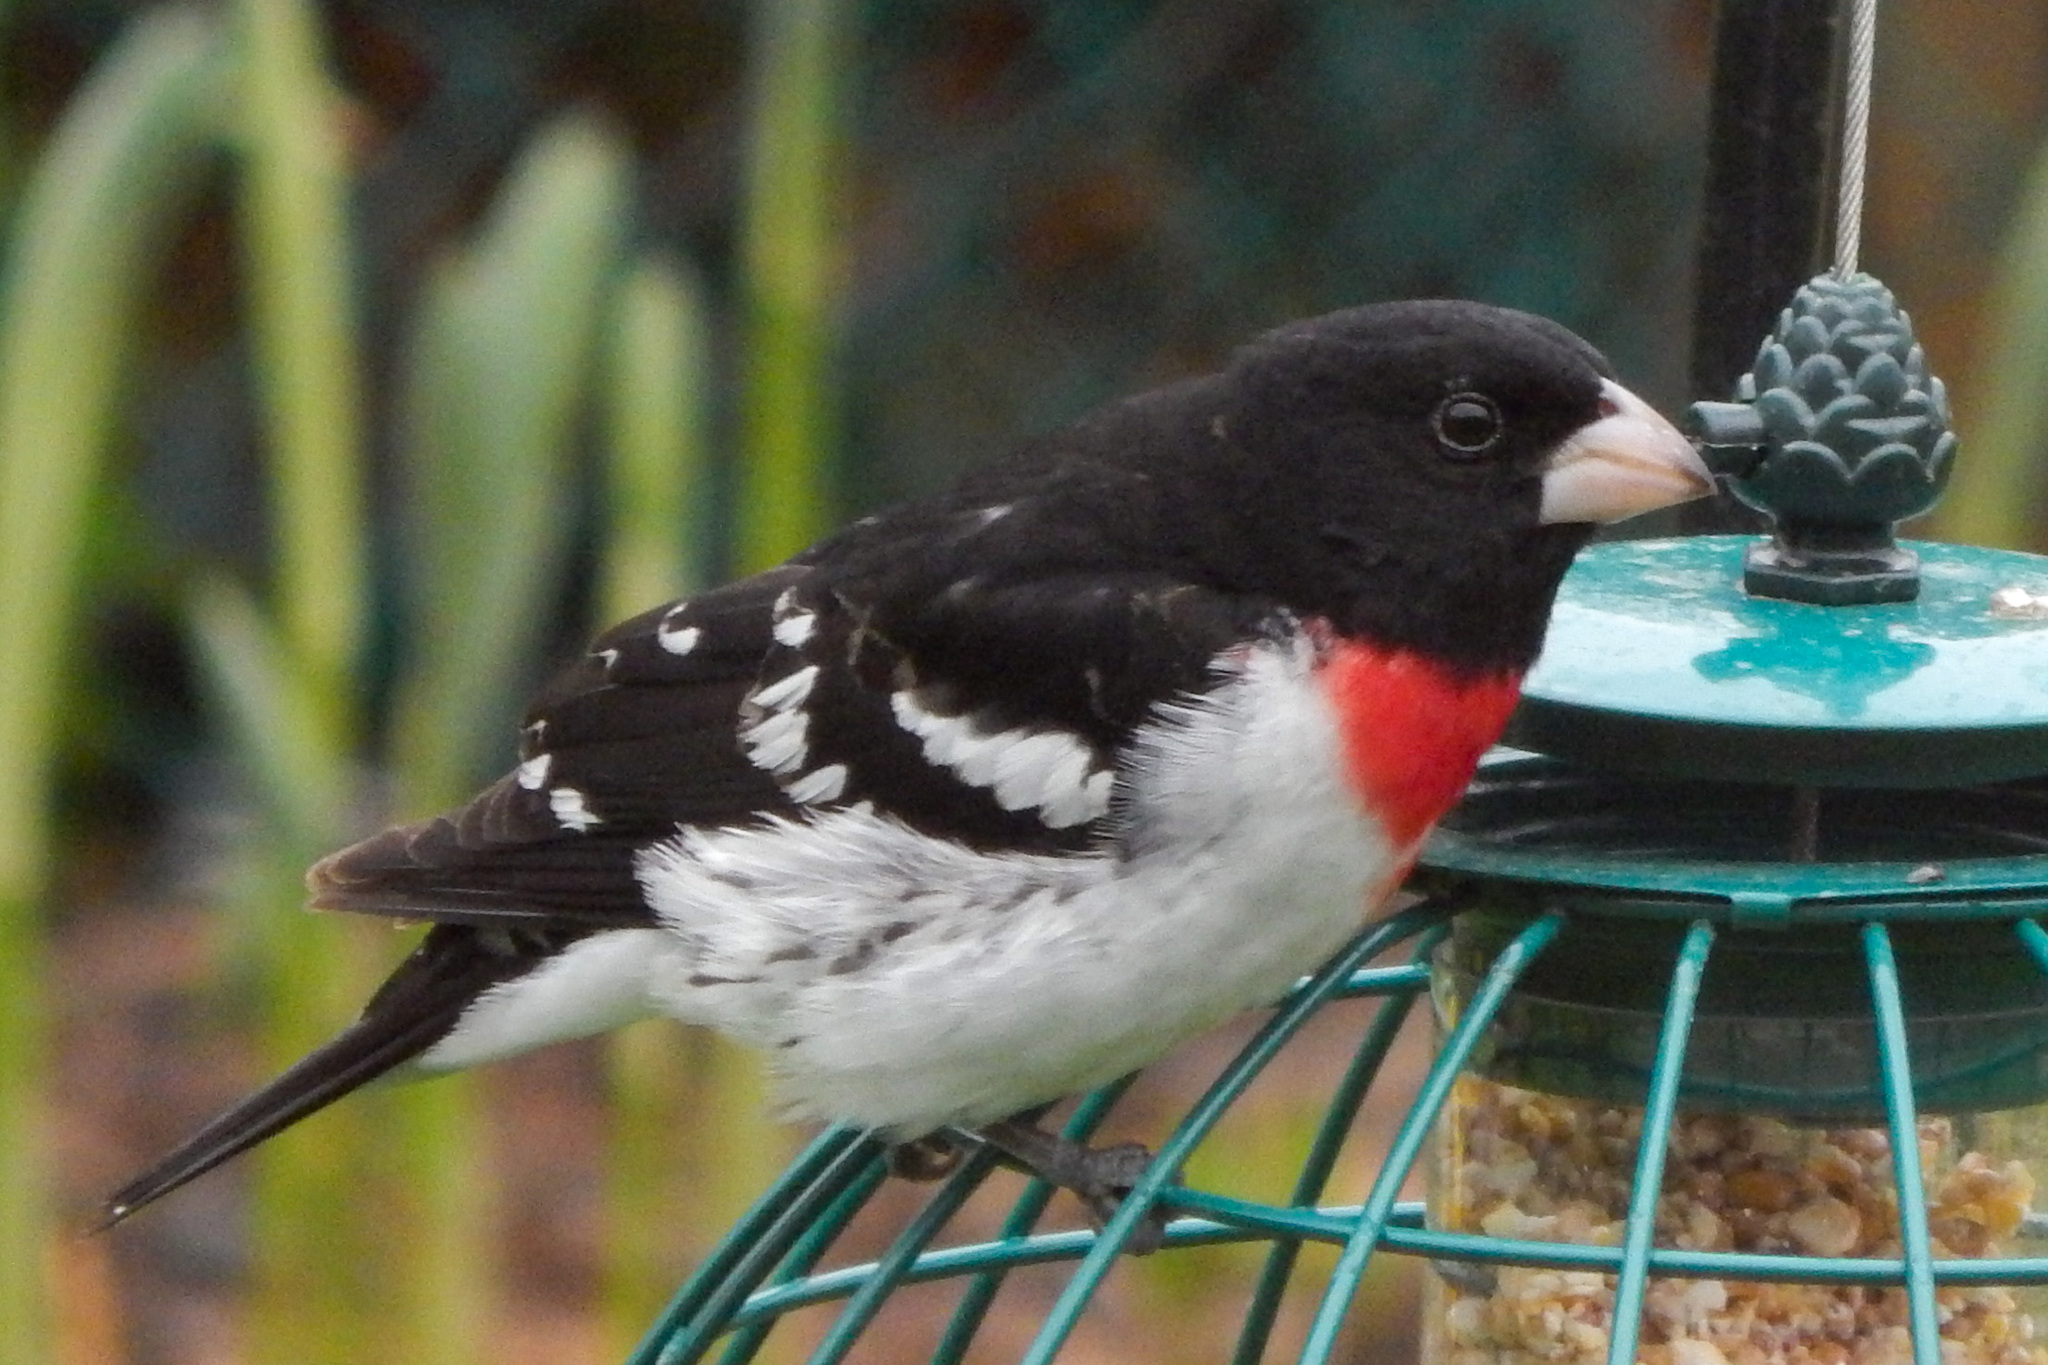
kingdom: Animalia
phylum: Chordata
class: Aves
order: Passeriformes
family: Cardinalidae
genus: Pheucticus
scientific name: Pheucticus ludovicianus
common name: Rose-breasted grosbeak
